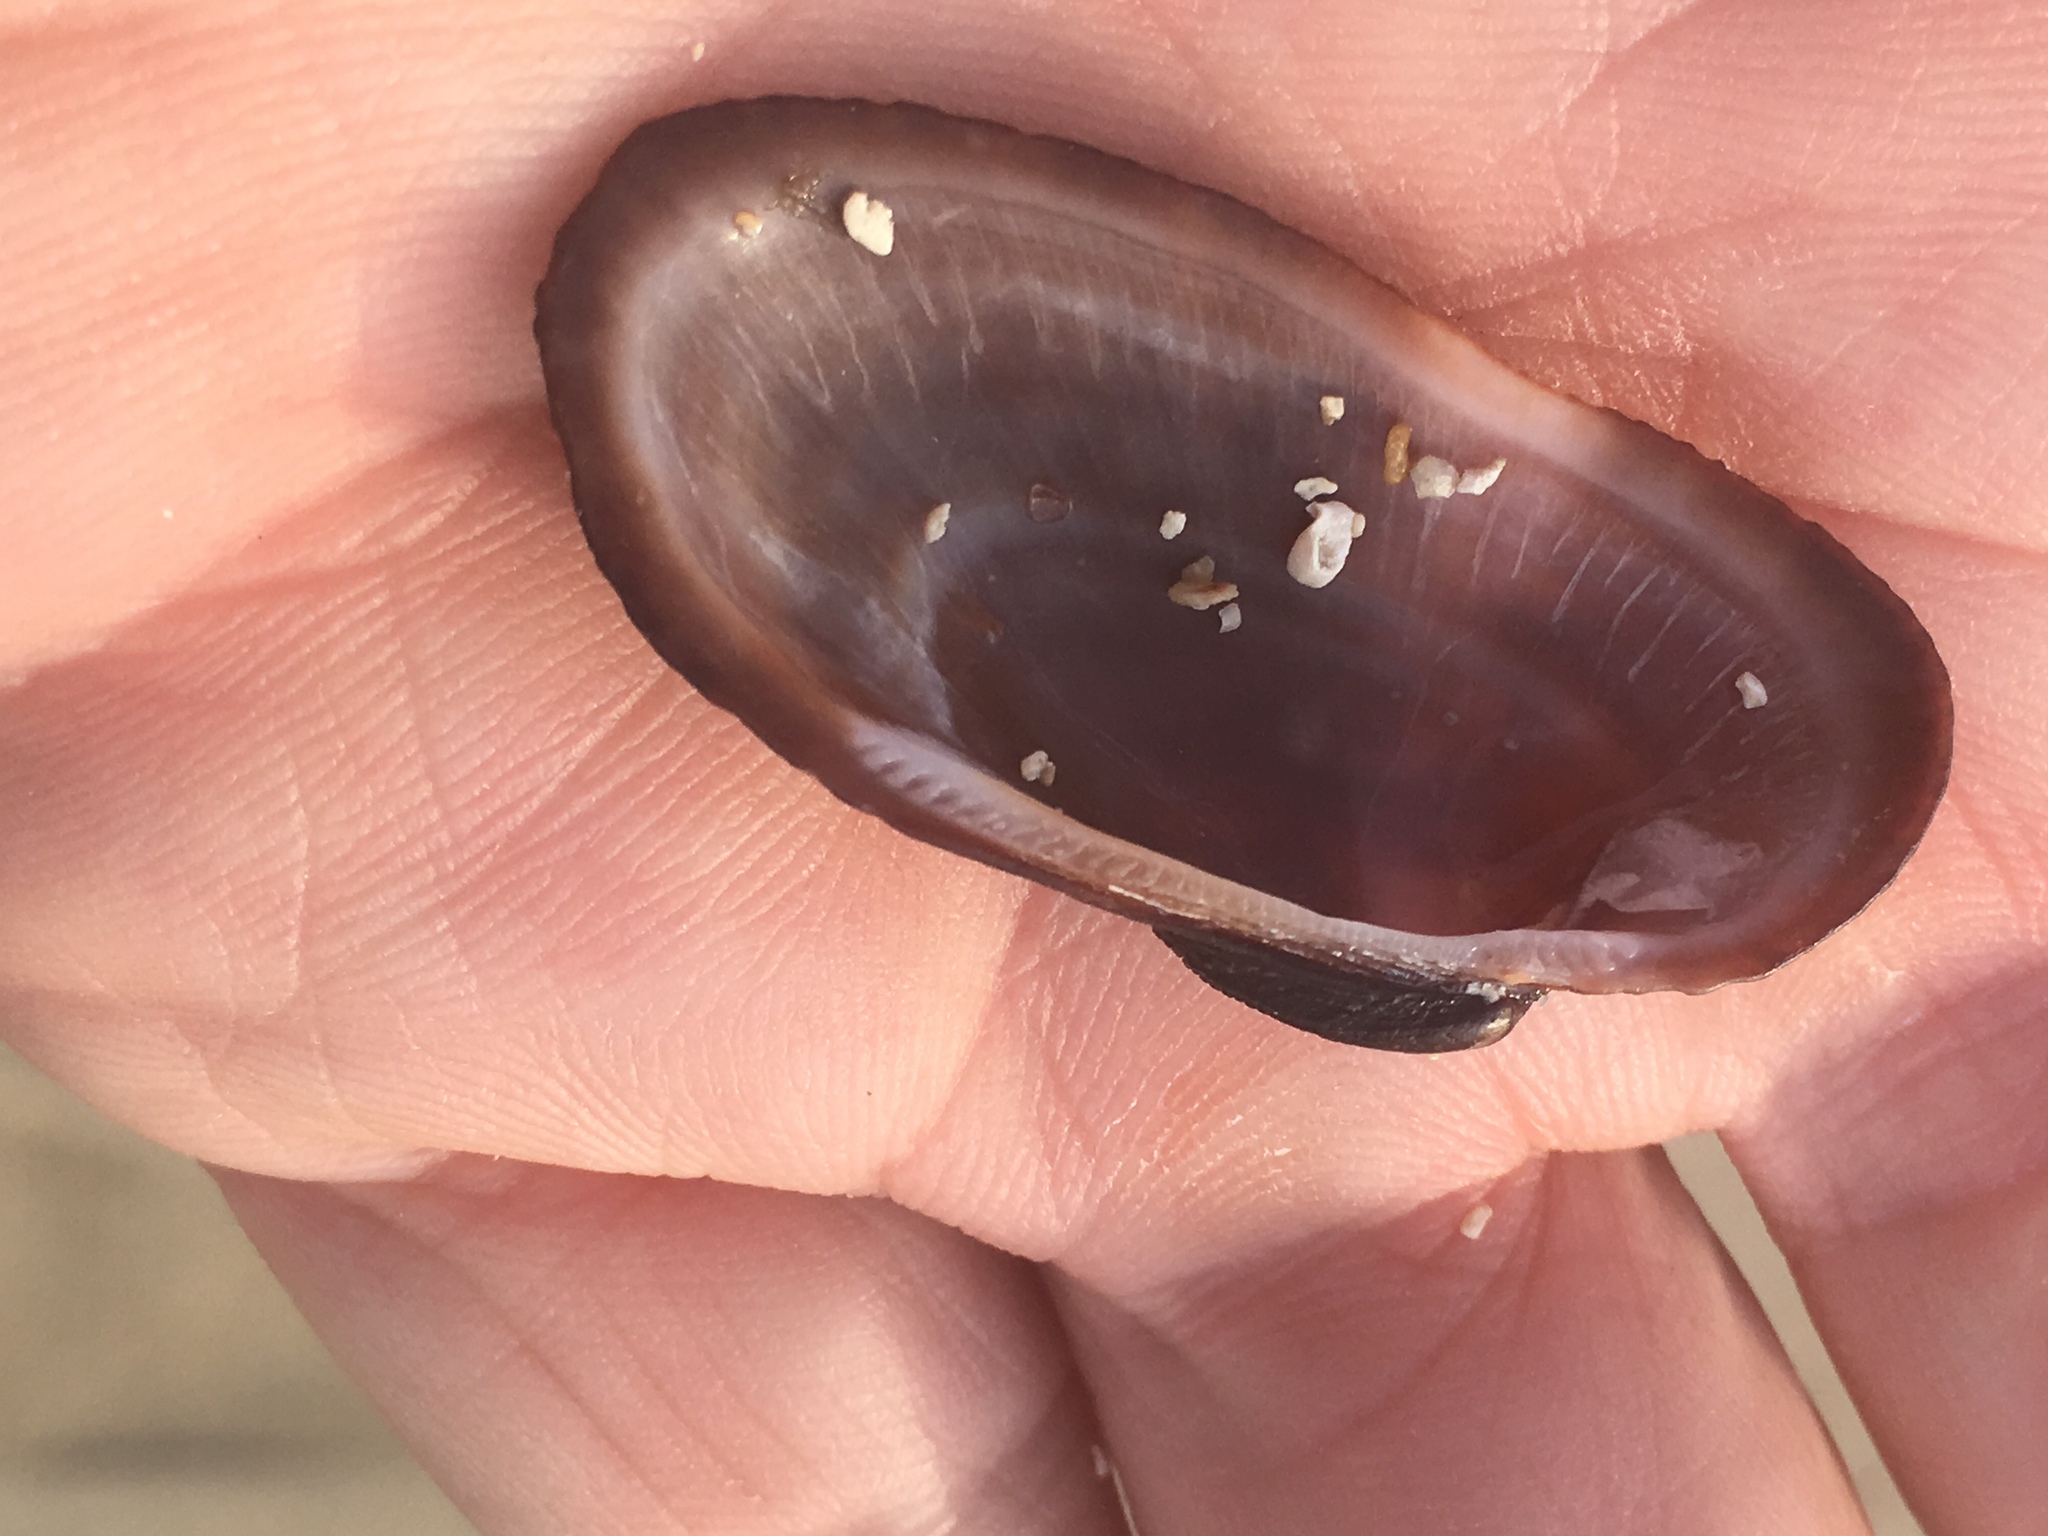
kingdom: Animalia
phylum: Mollusca
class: Bivalvia
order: Arcida
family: Arcidae
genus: Barbatia
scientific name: Barbatia domingensis
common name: White miniature ark
